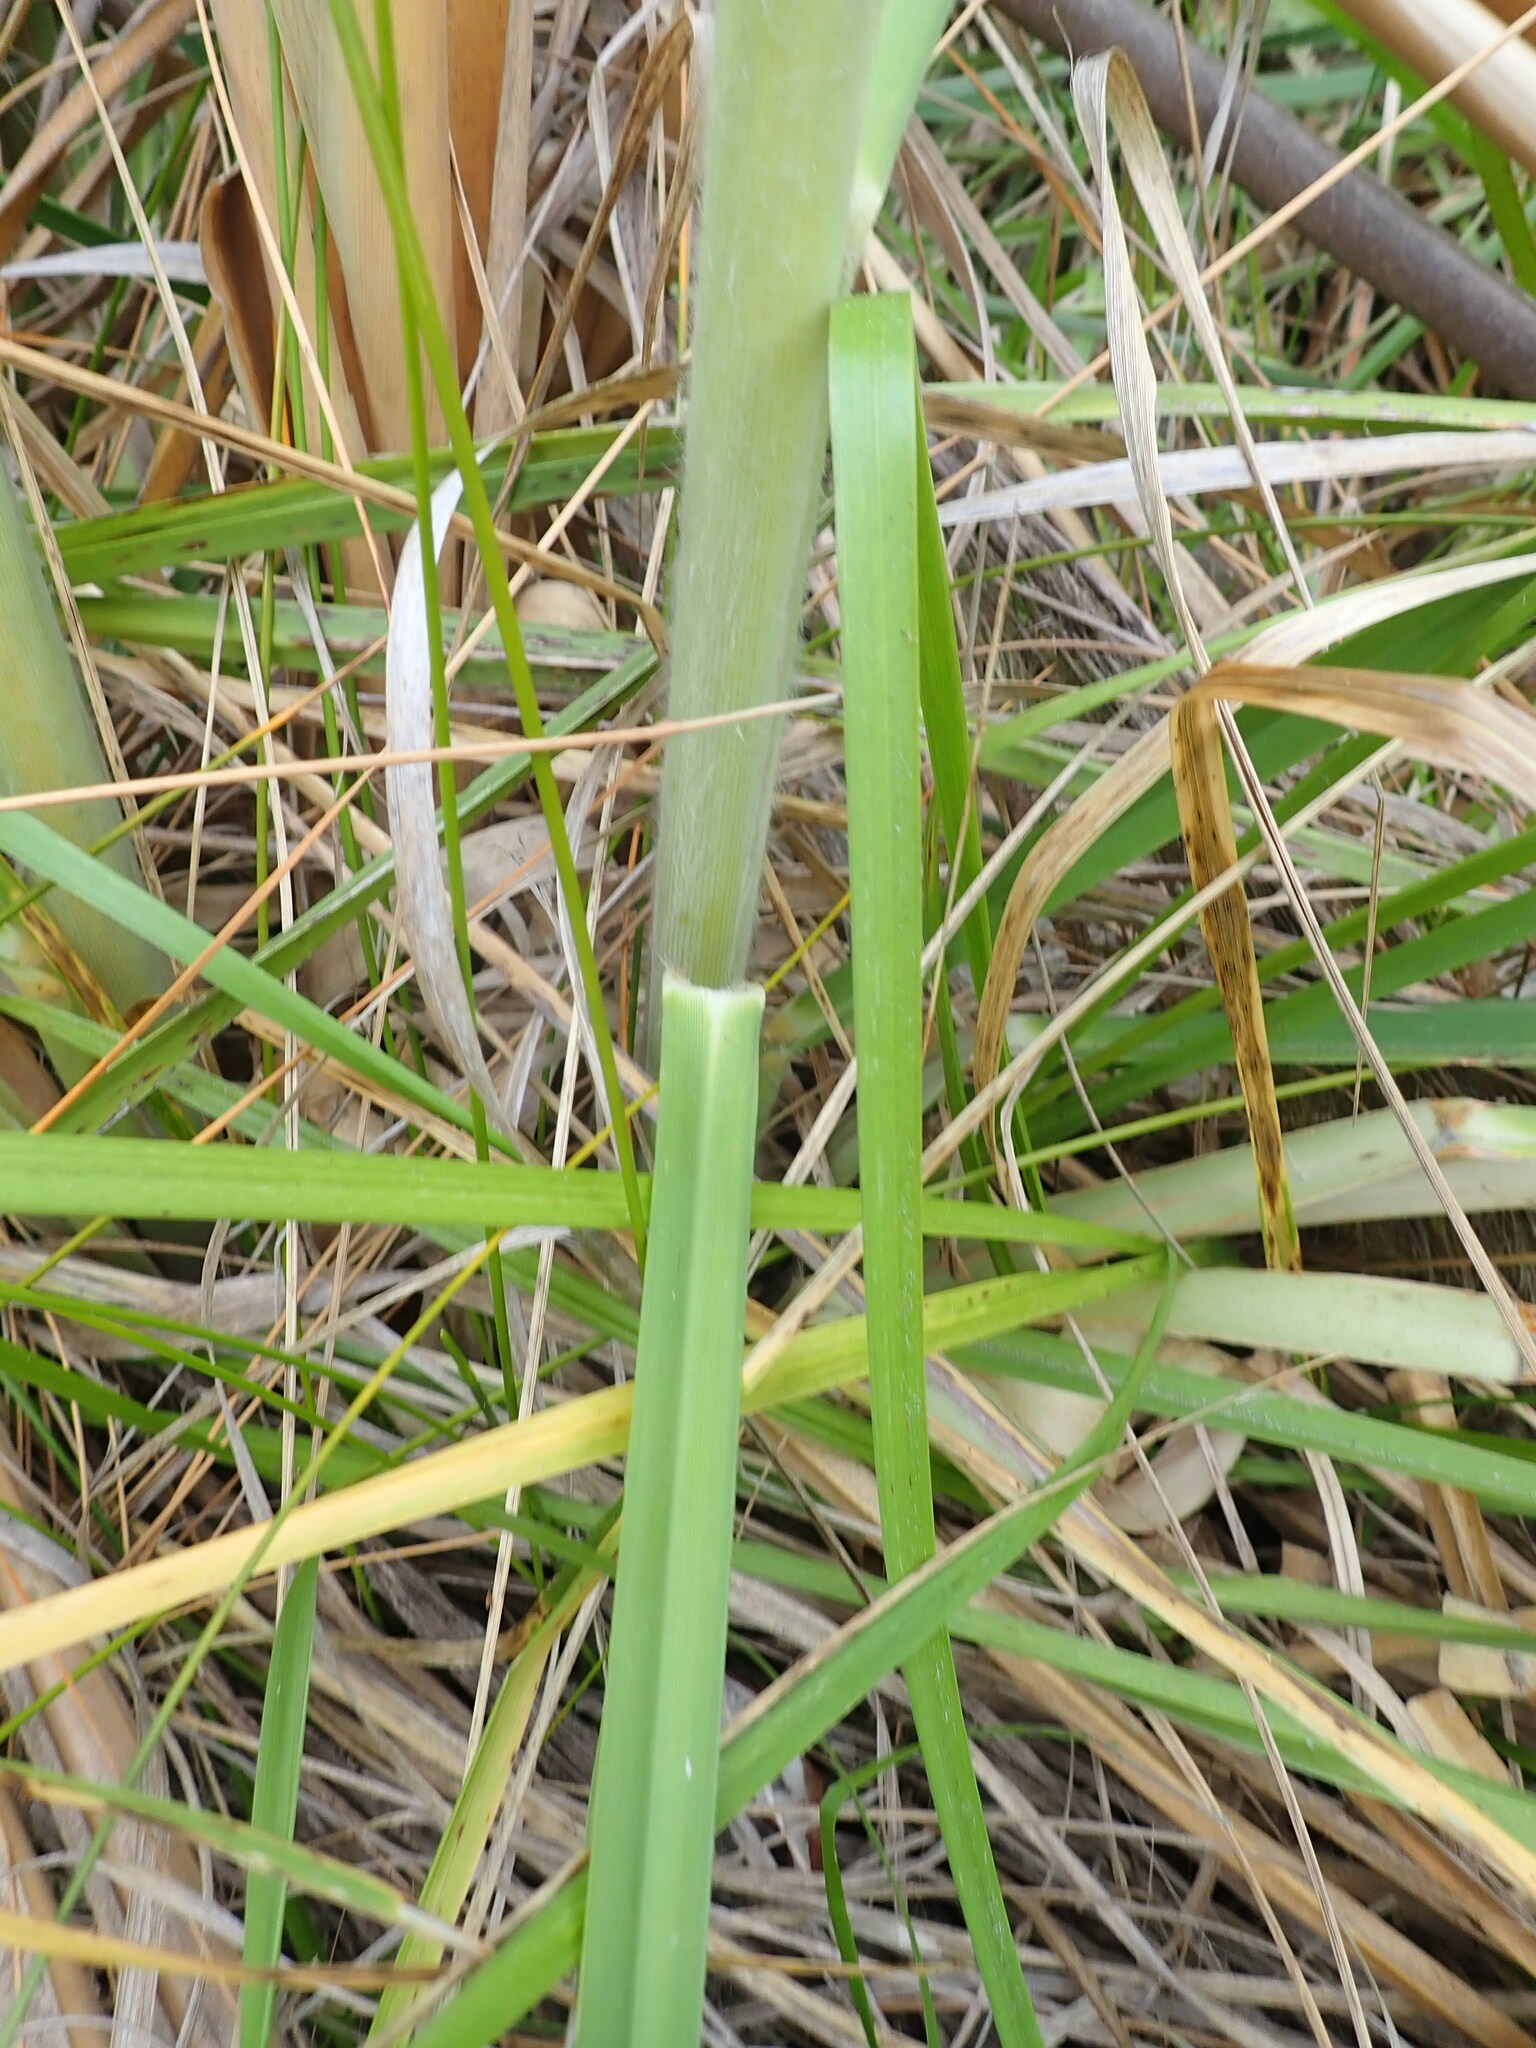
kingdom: Plantae
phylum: Tracheophyta
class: Liliopsida
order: Poales
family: Poaceae
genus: Cortaderia
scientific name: Cortaderia selloana
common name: Uruguayan pampas grass
